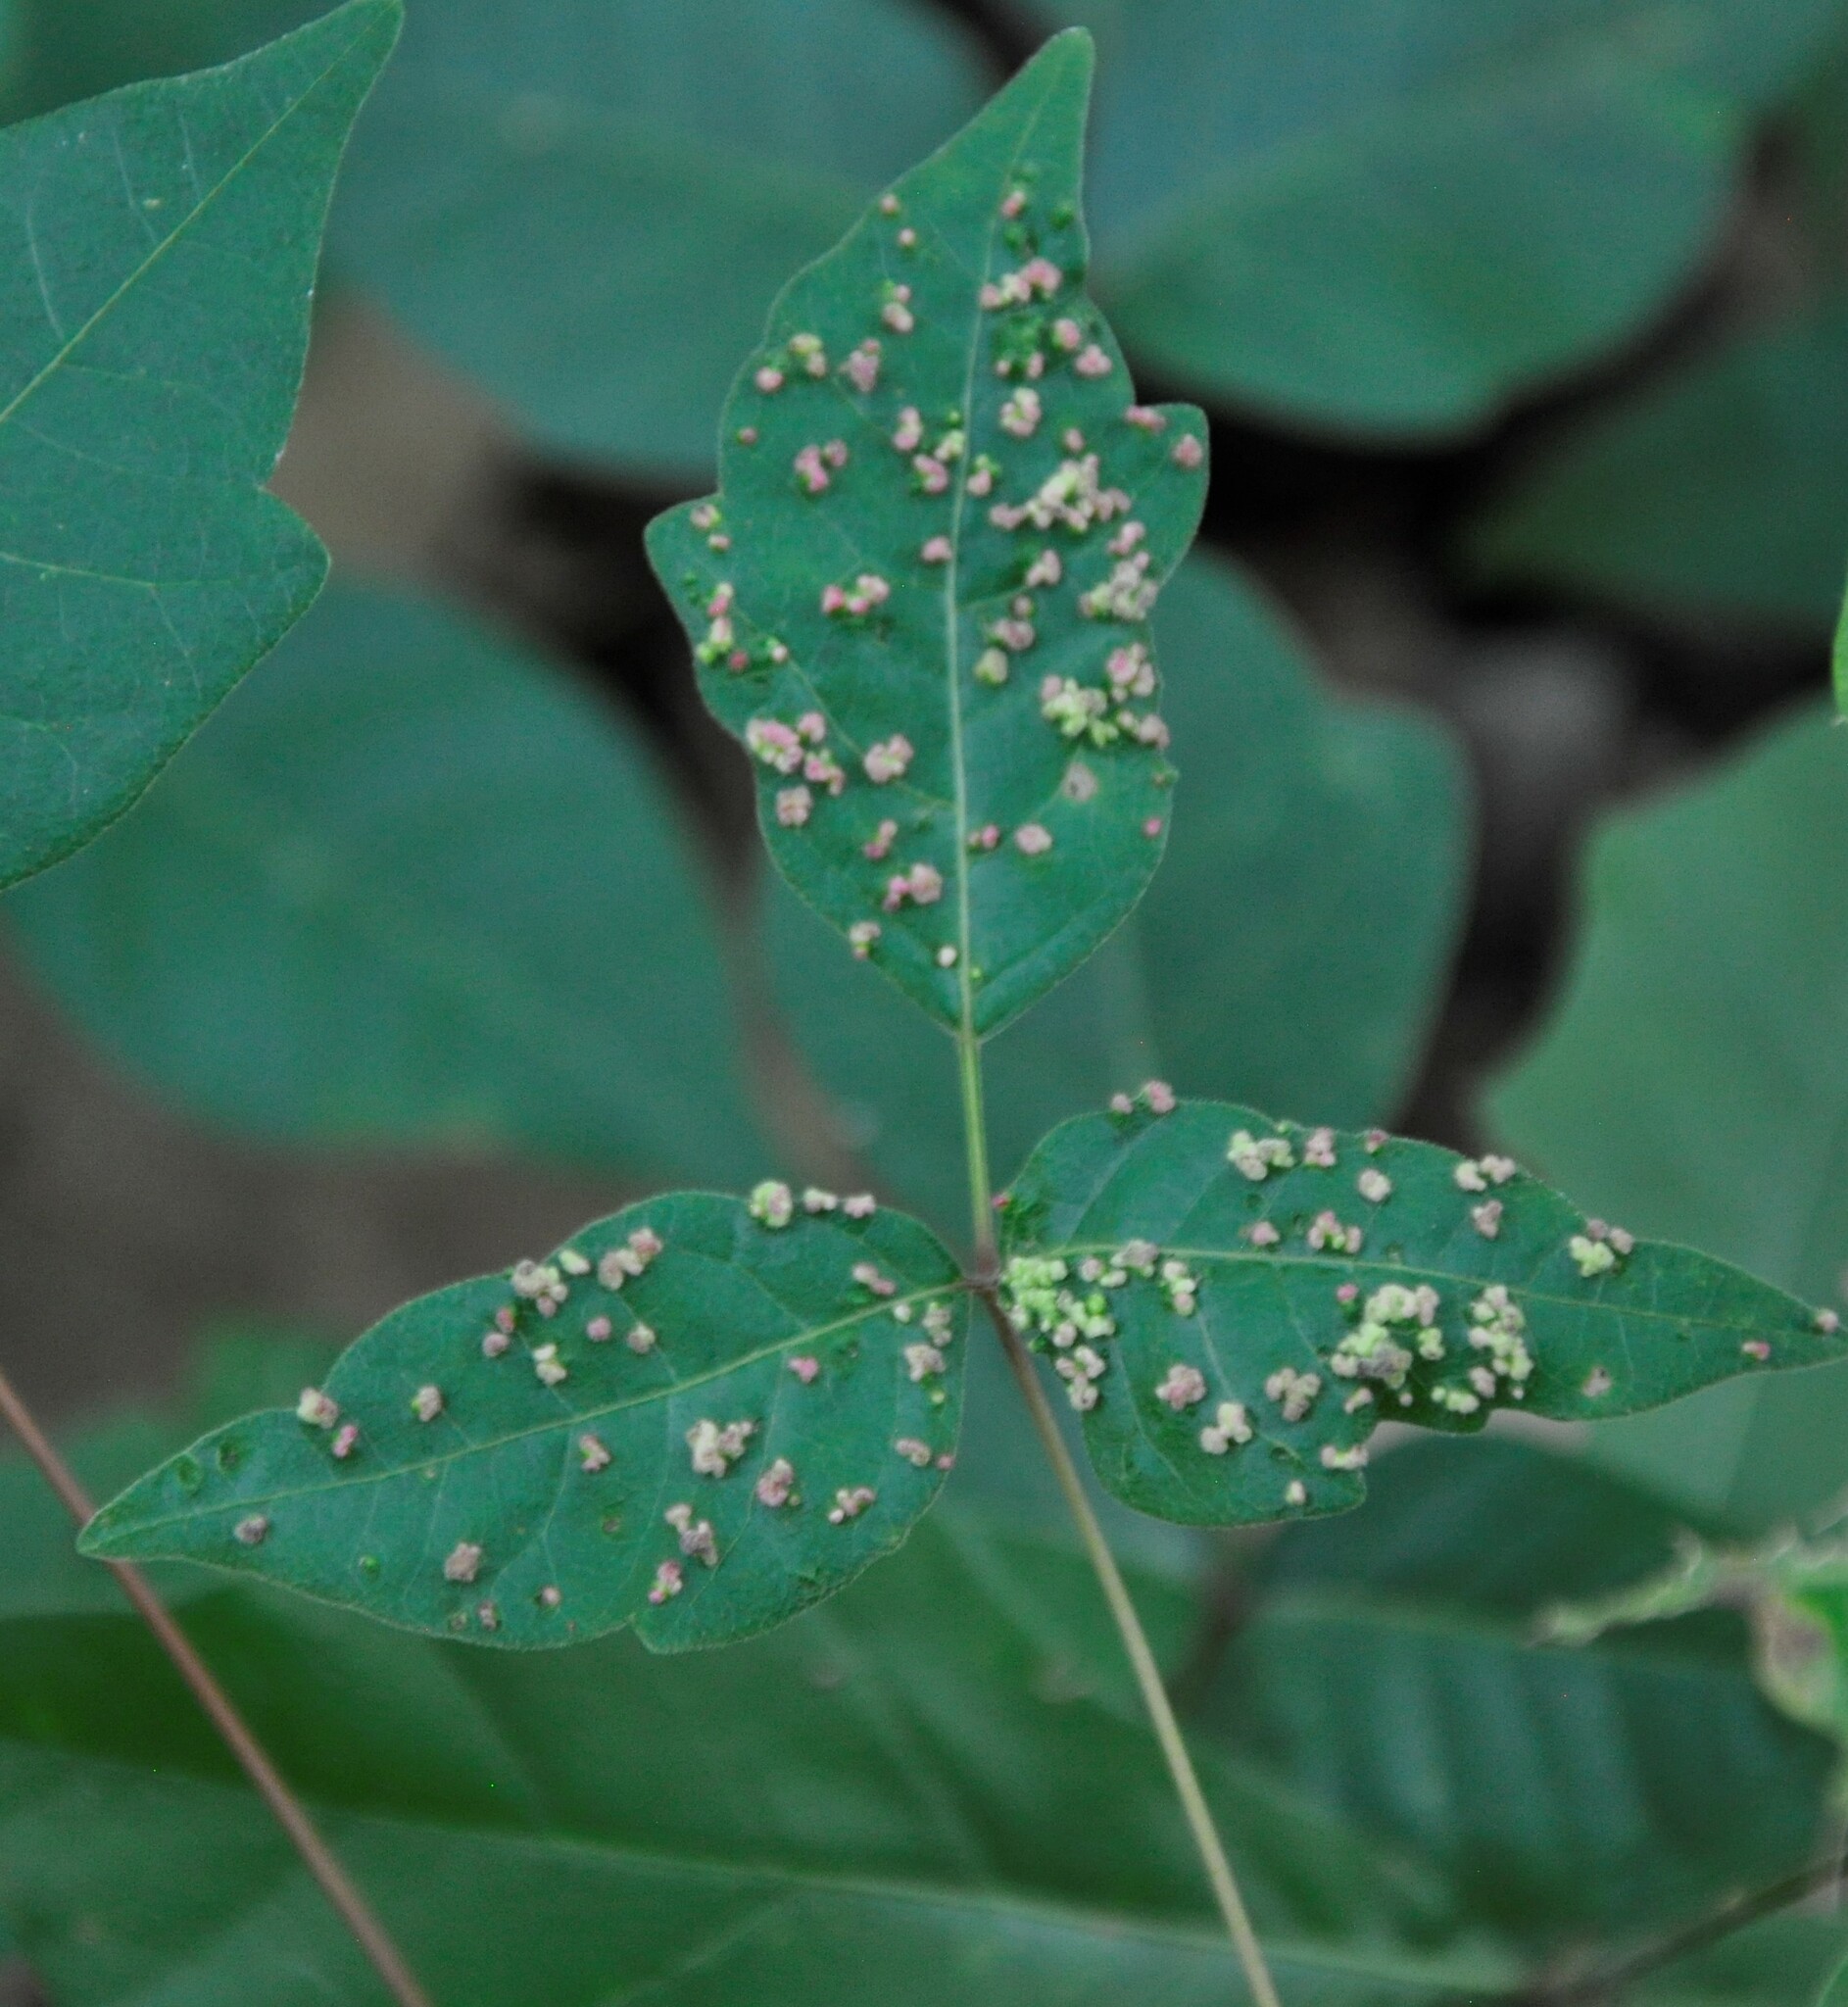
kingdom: Animalia
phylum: Arthropoda
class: Arachnida
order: Trombidiformes
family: Eriophyidae
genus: Aculops
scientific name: Aculops
